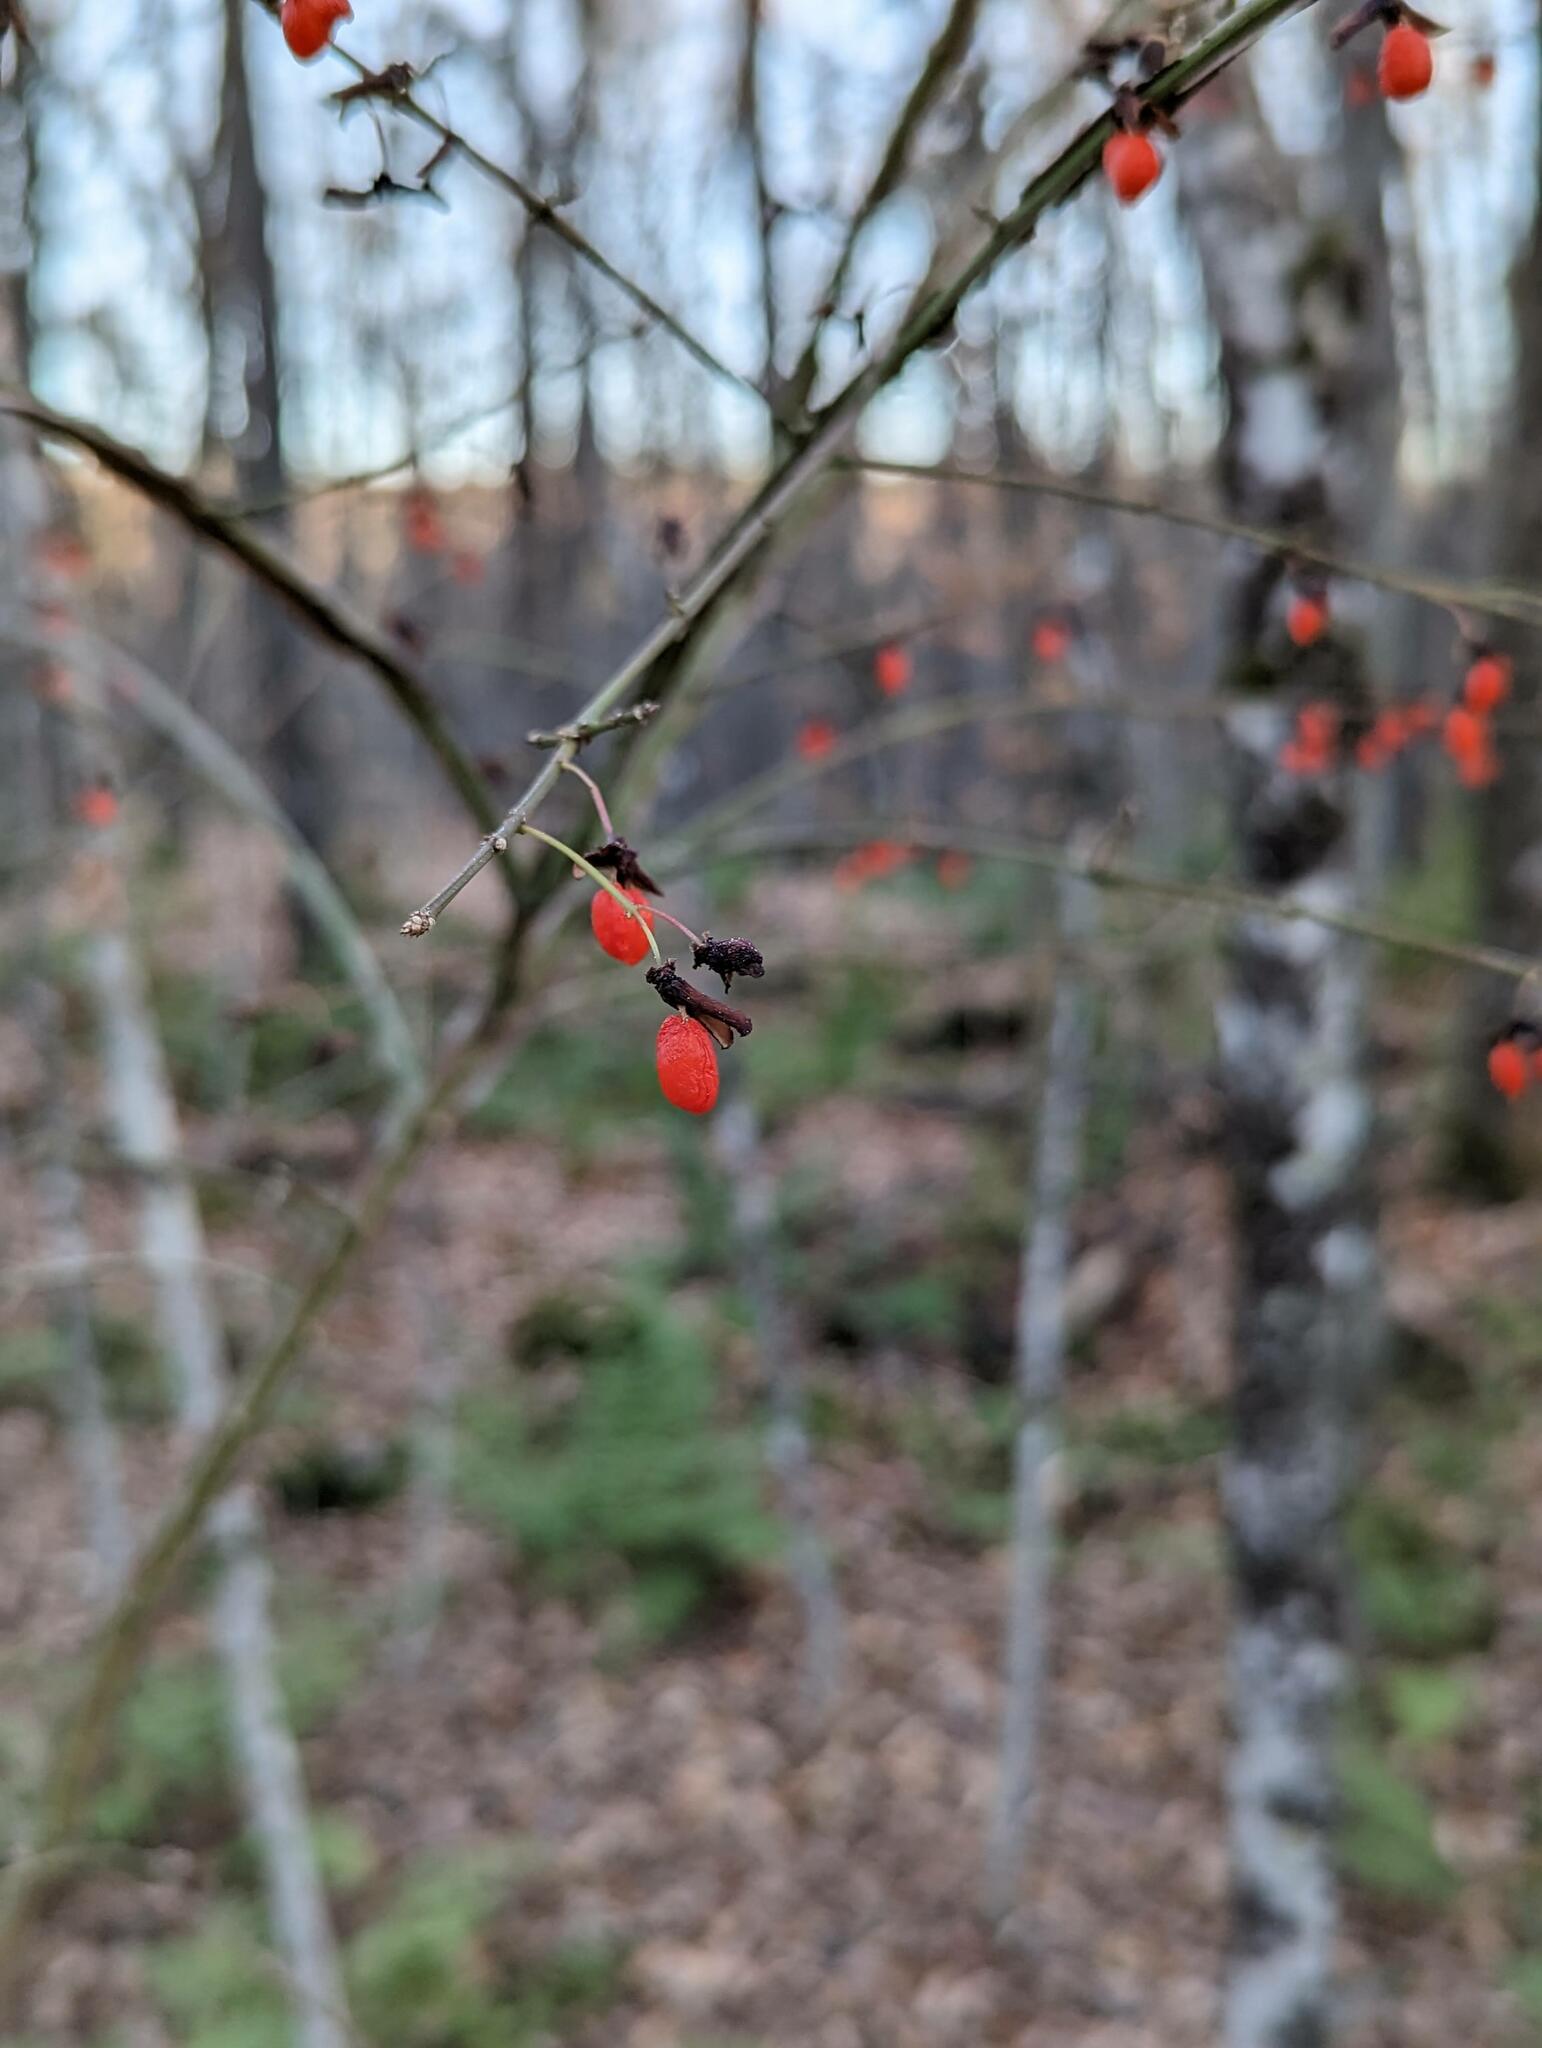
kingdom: Plantae
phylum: Tracheophyta
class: Magnoliopsida
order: Celastrales
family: Celastraceae
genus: Euonymus
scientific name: Euonymus alatus
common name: Winged euonymus
